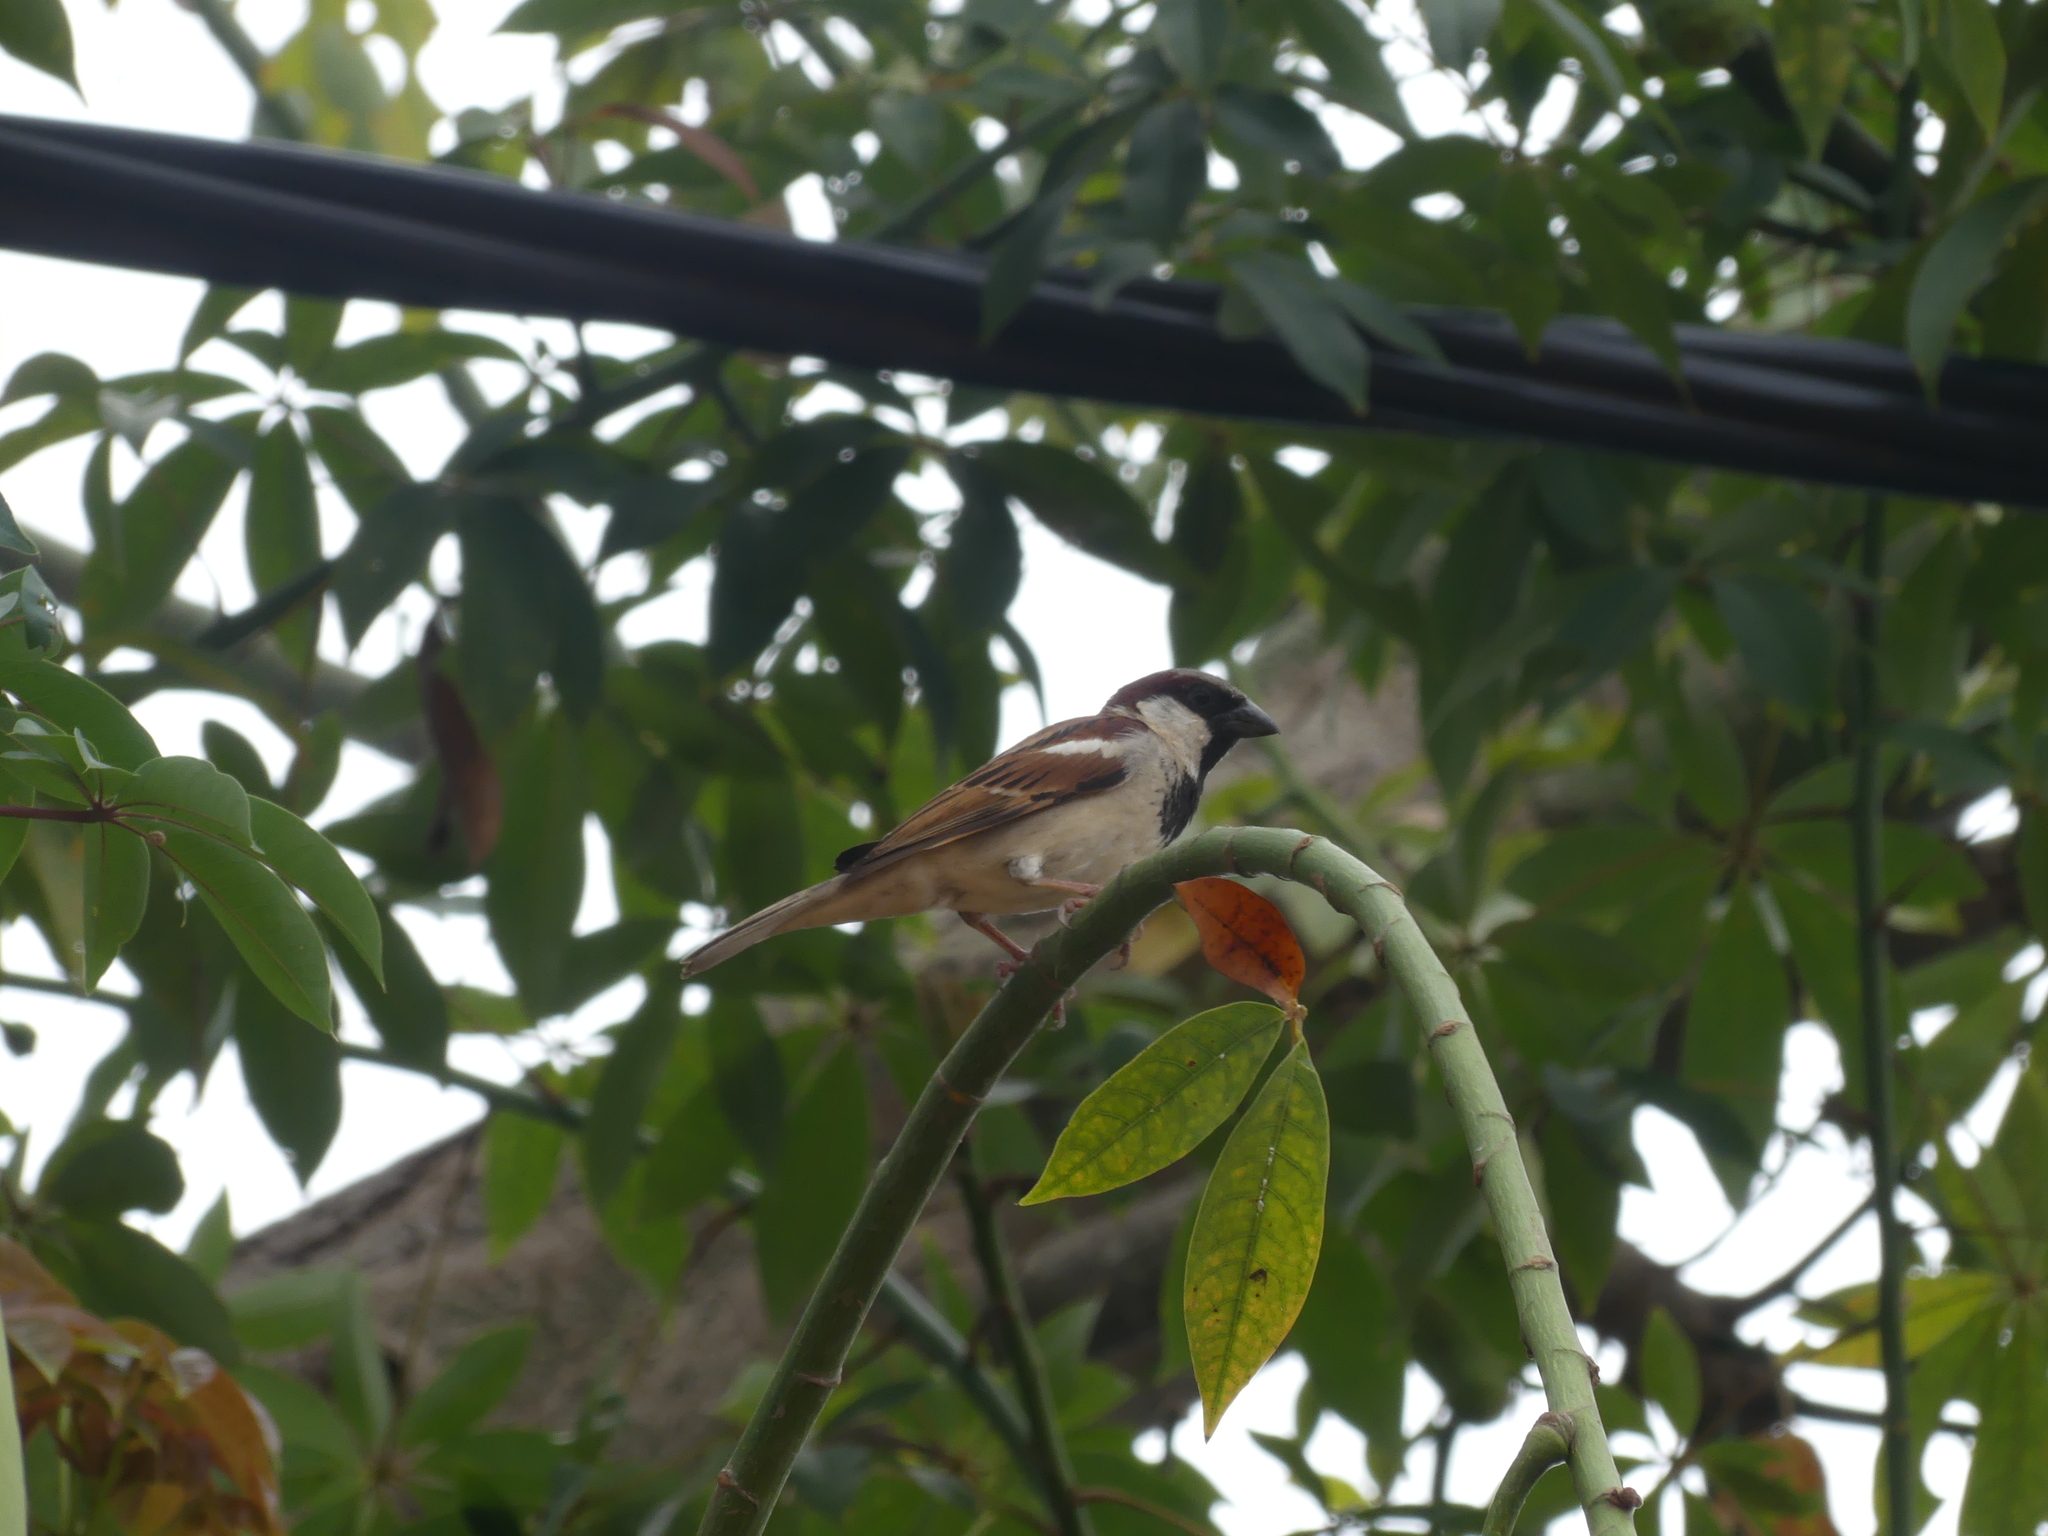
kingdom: Animalia
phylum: Chordata
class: Aves
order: Passeriformes
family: Passeridae
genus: Passer
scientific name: Passer domesticus
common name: House sparrow
